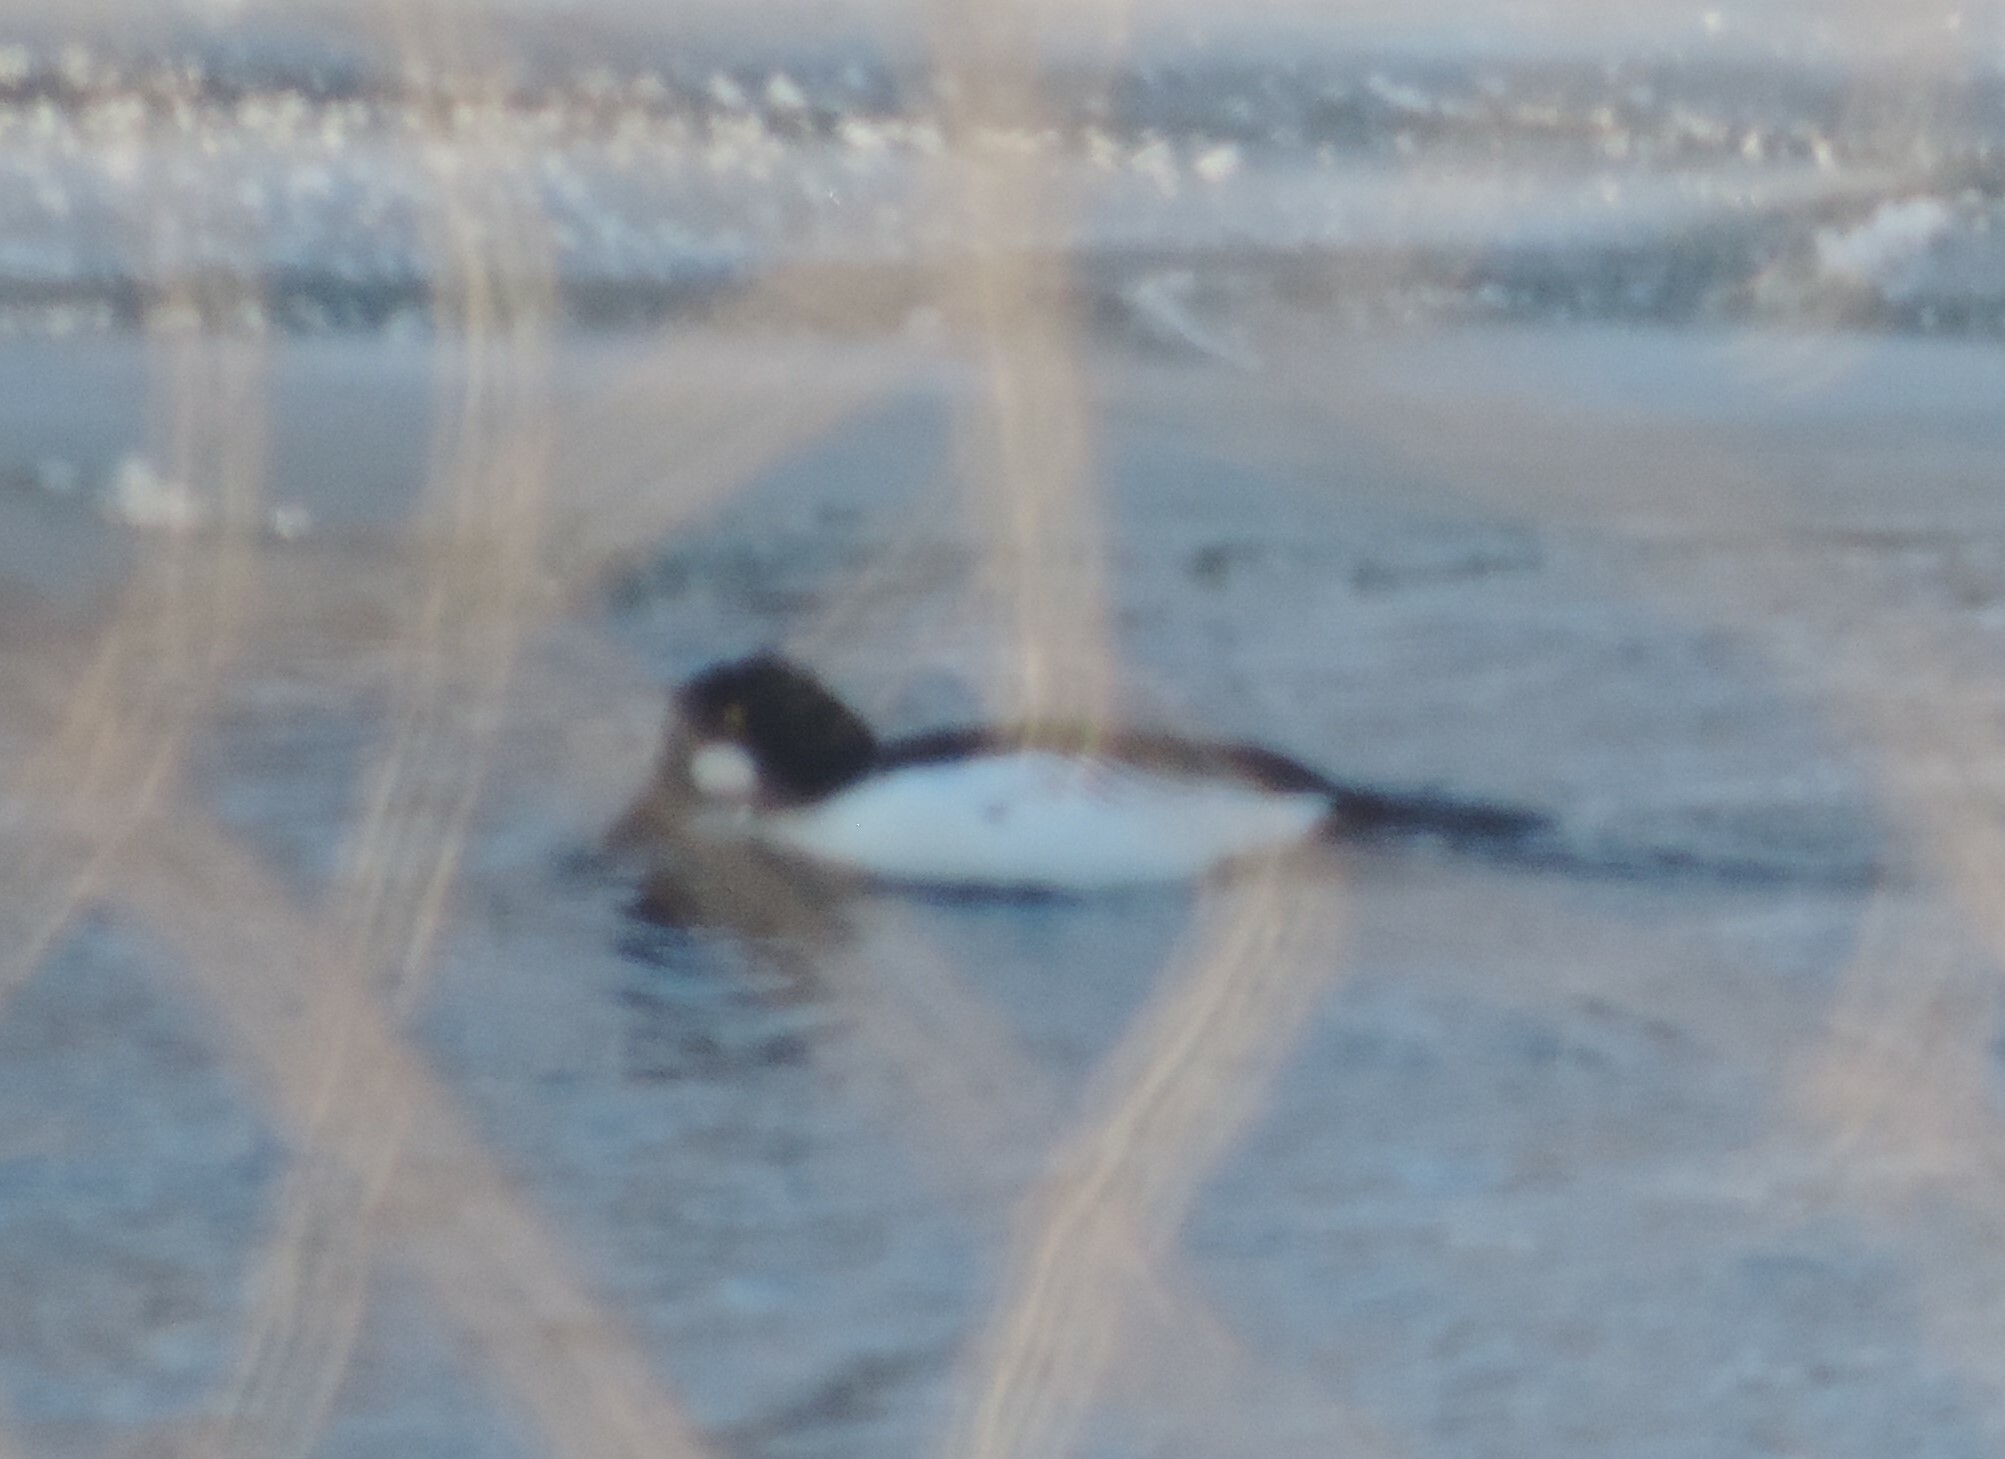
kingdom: Animalia
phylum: Chordata
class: Aves
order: Anseriformes
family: Anatidae
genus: Bucephala
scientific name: Bucephala clangula
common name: Common goldeneye
